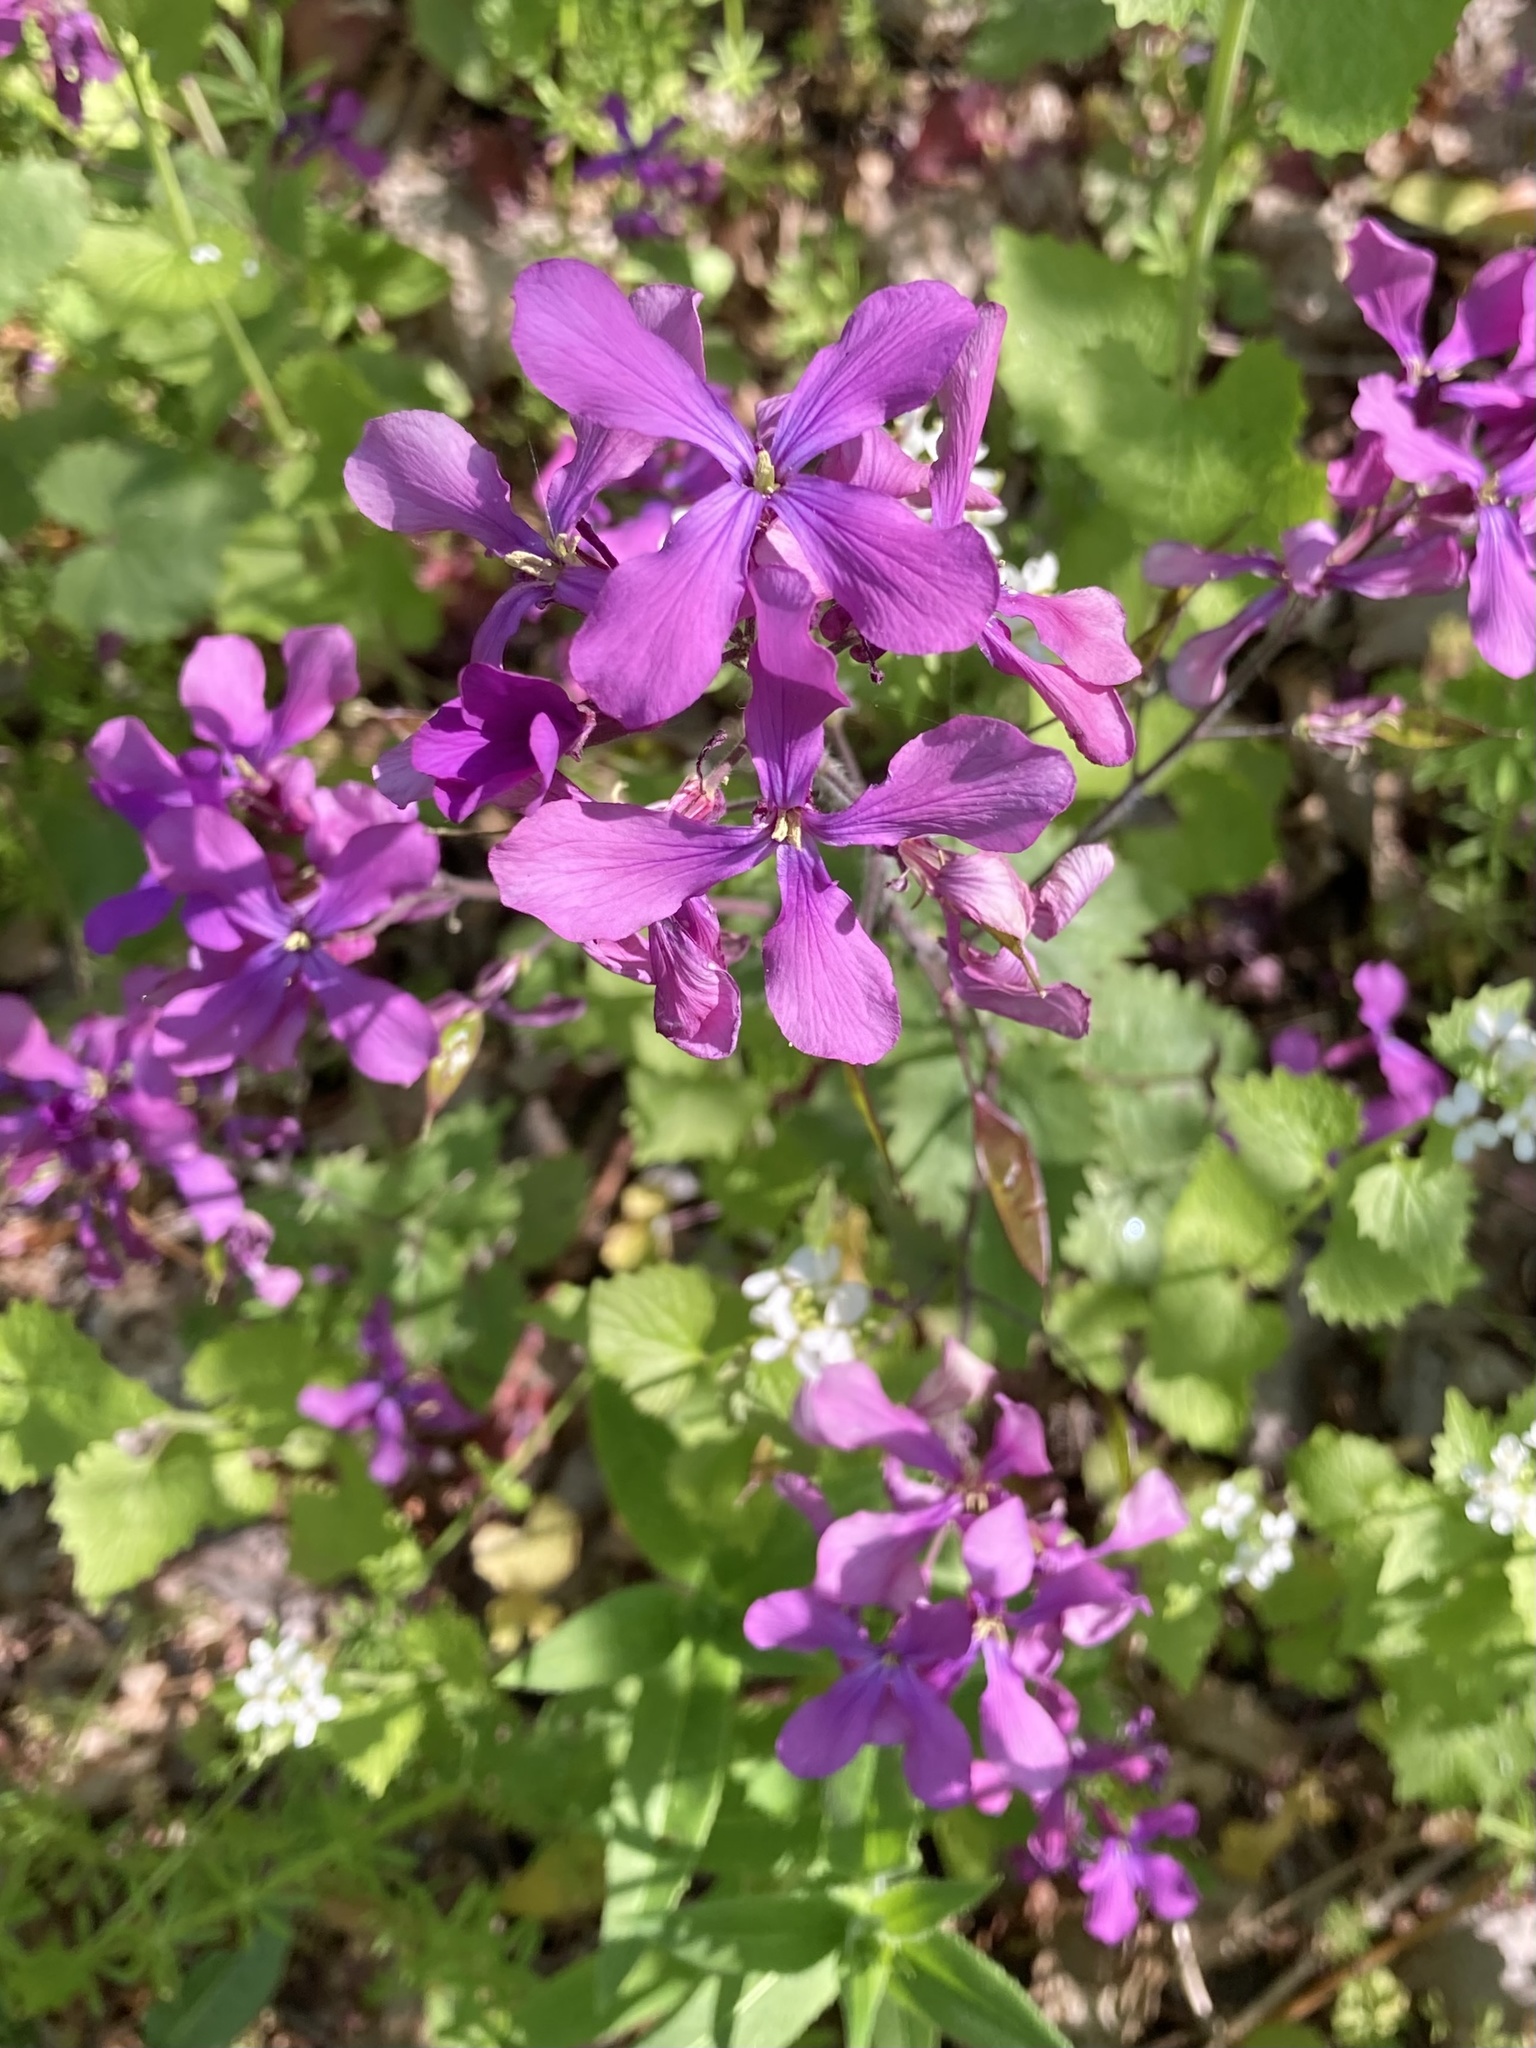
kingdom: Plantae
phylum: Tracheophyta
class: Magnoliopsida
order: Brassicales
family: Brassicaceae
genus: Lunaria
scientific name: Lunaria annua
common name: Honesty
